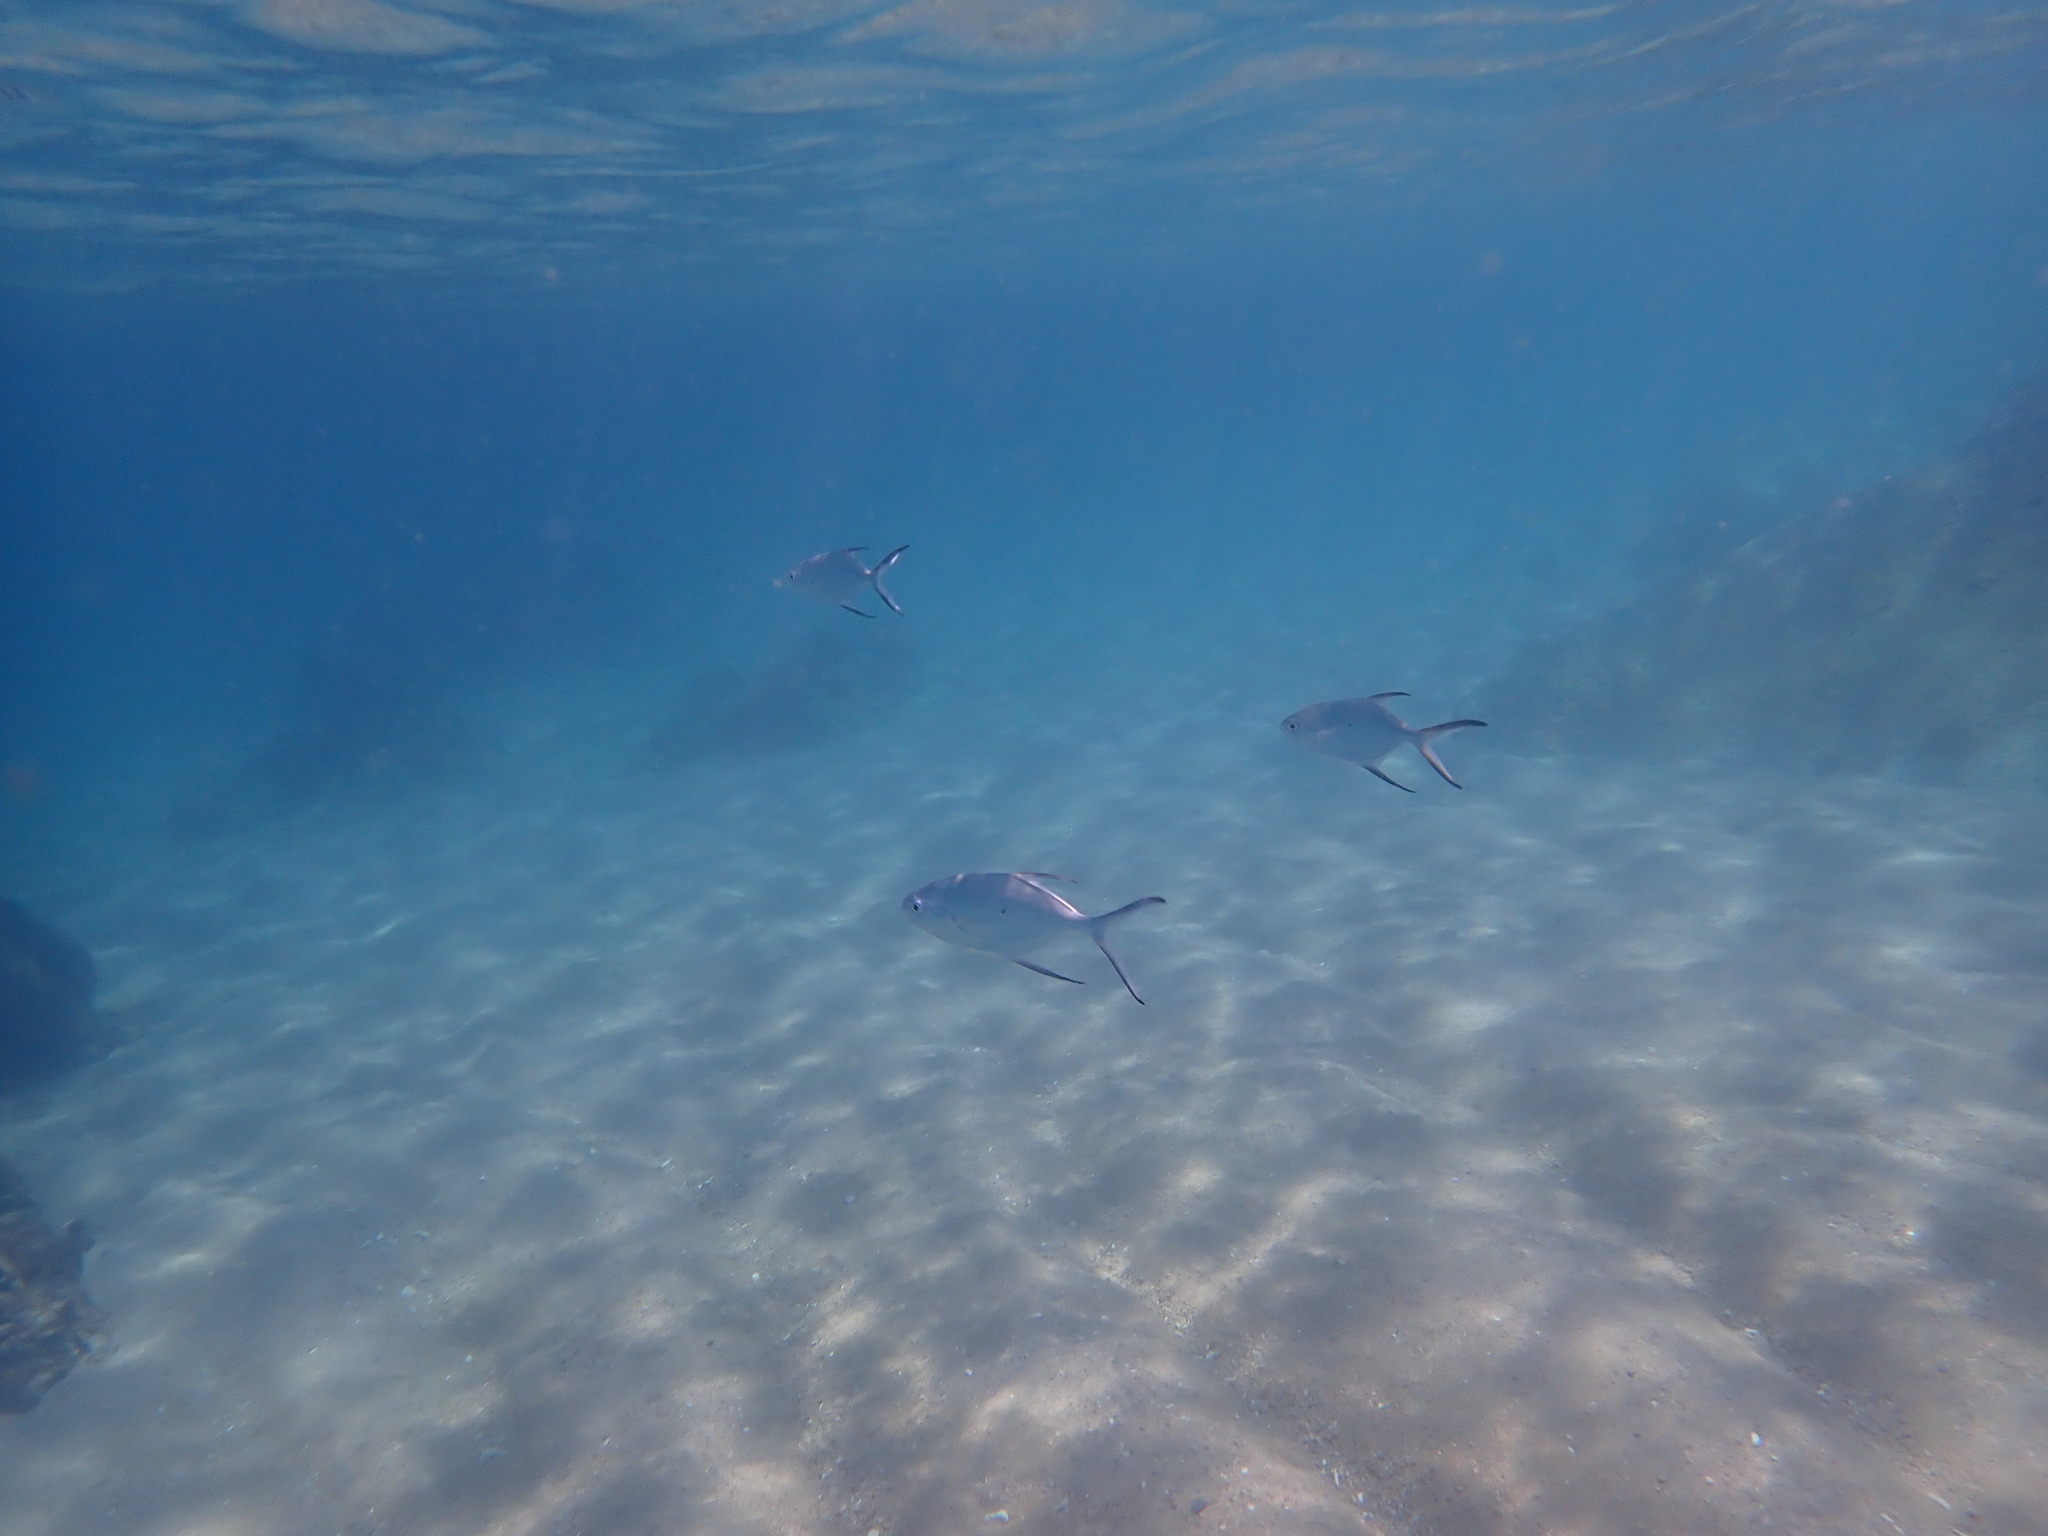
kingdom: Animalia
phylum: Chordata
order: Perciformes
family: Carangidae
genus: Trachinotus
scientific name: Trachinotus baillonii
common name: Smallspotted dart
